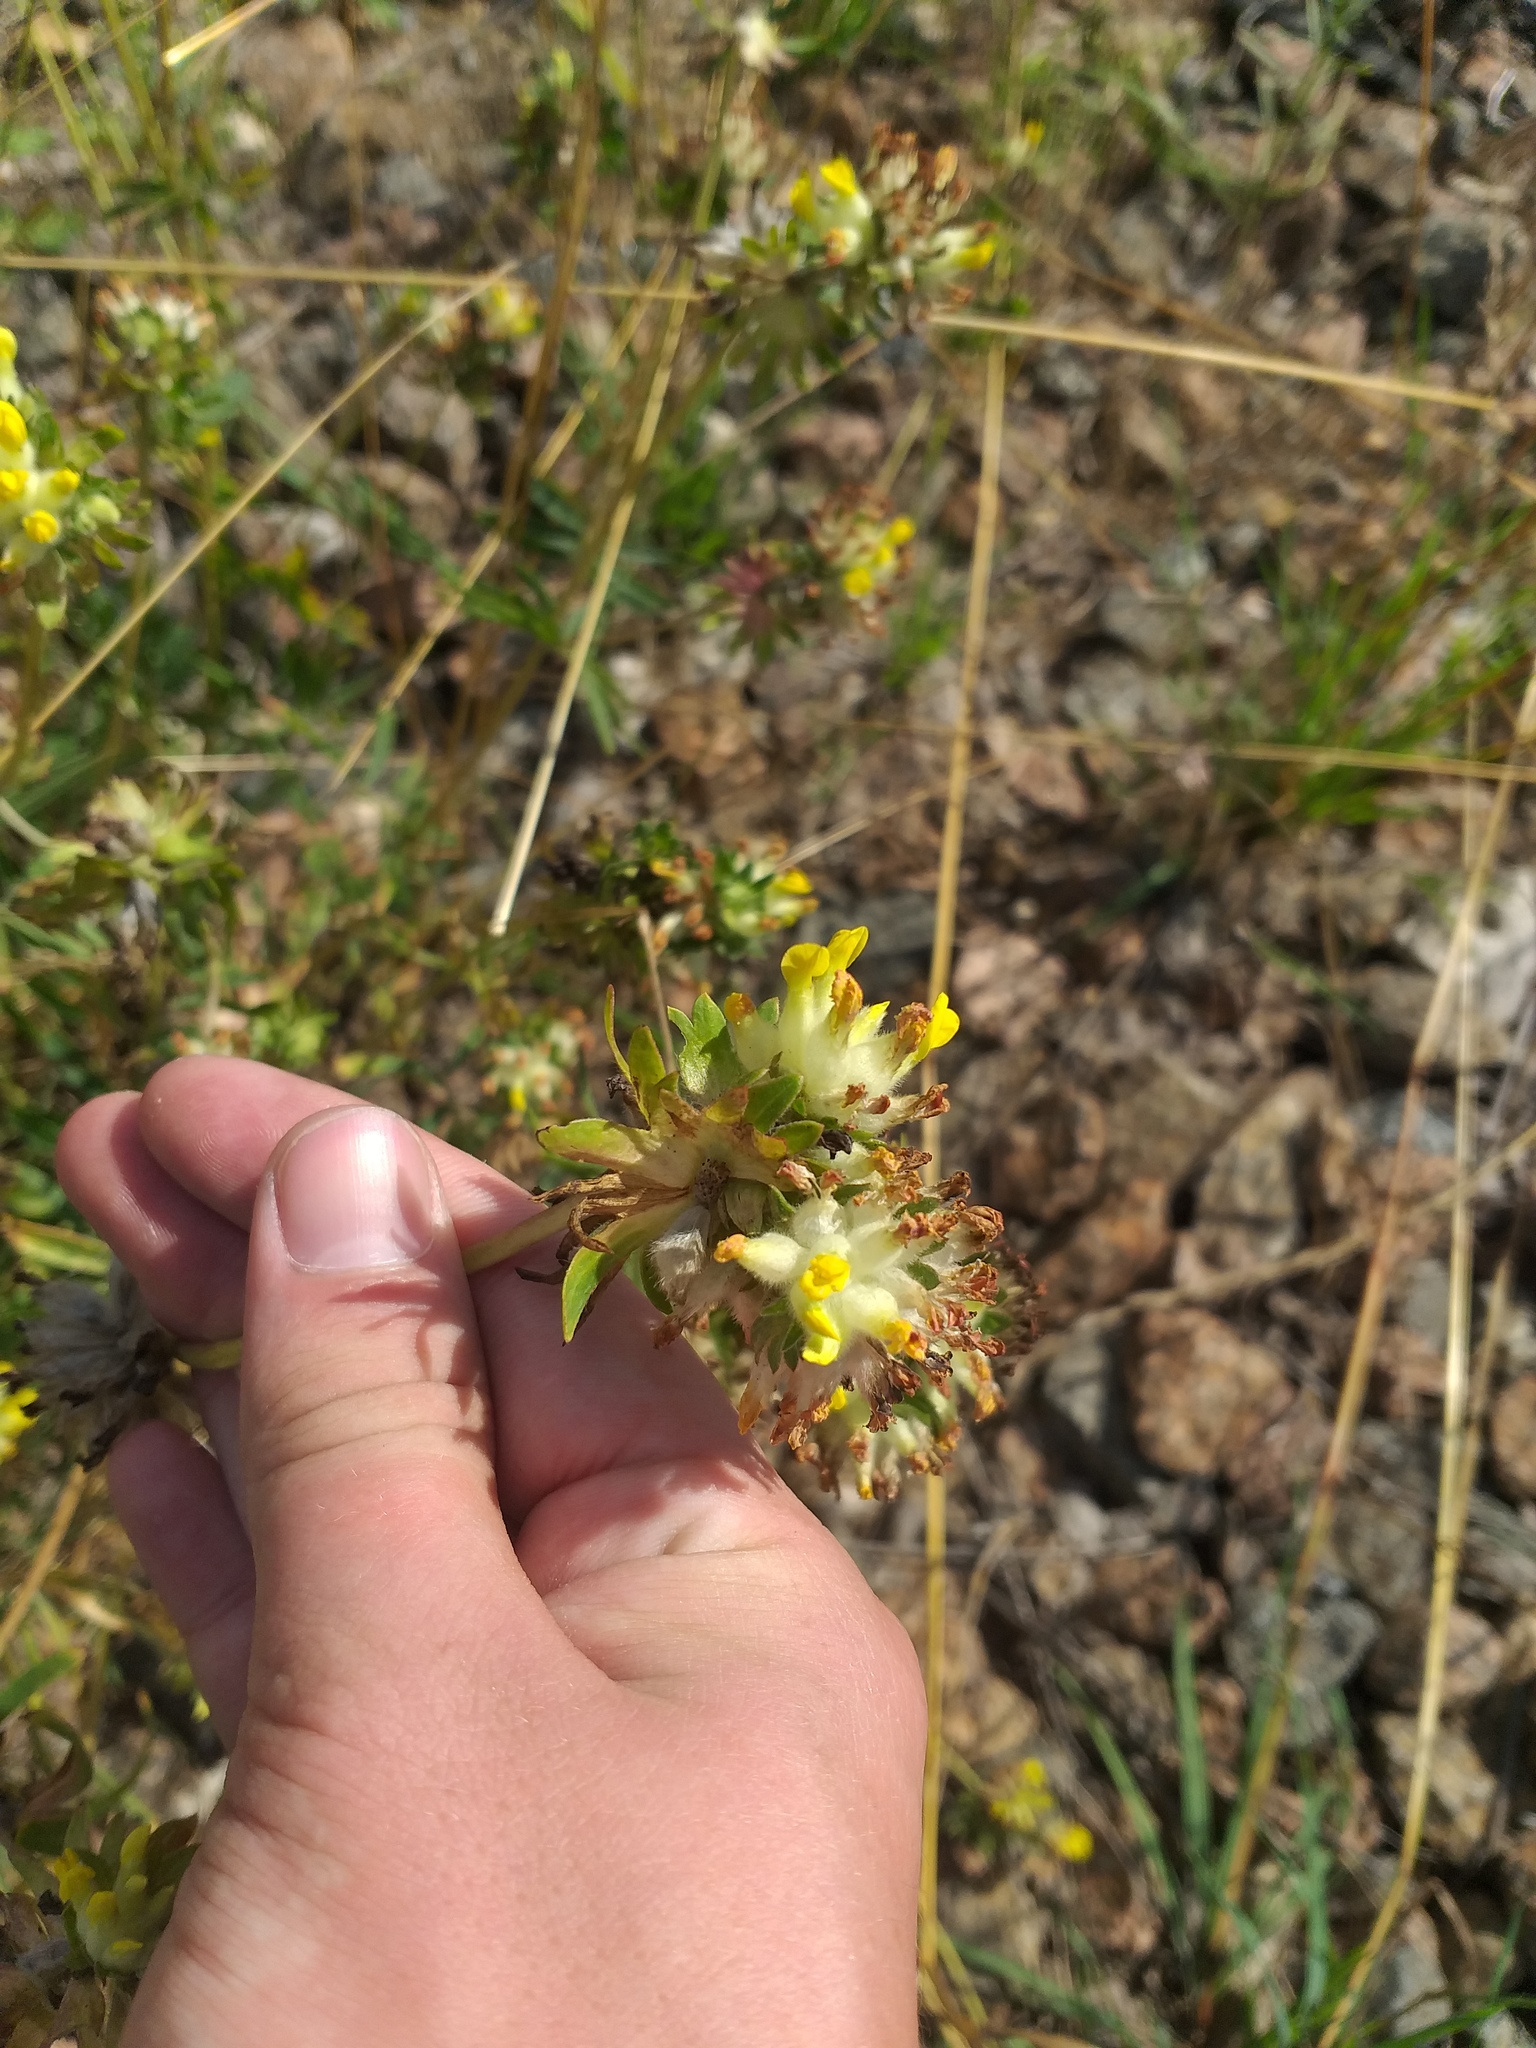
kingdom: Plantae
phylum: Tracheophyta
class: Magnoliopsida
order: Fabales
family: Fabaceae
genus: Anthyllis
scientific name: Anthyllis vulneraria
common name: Kidney vetch
